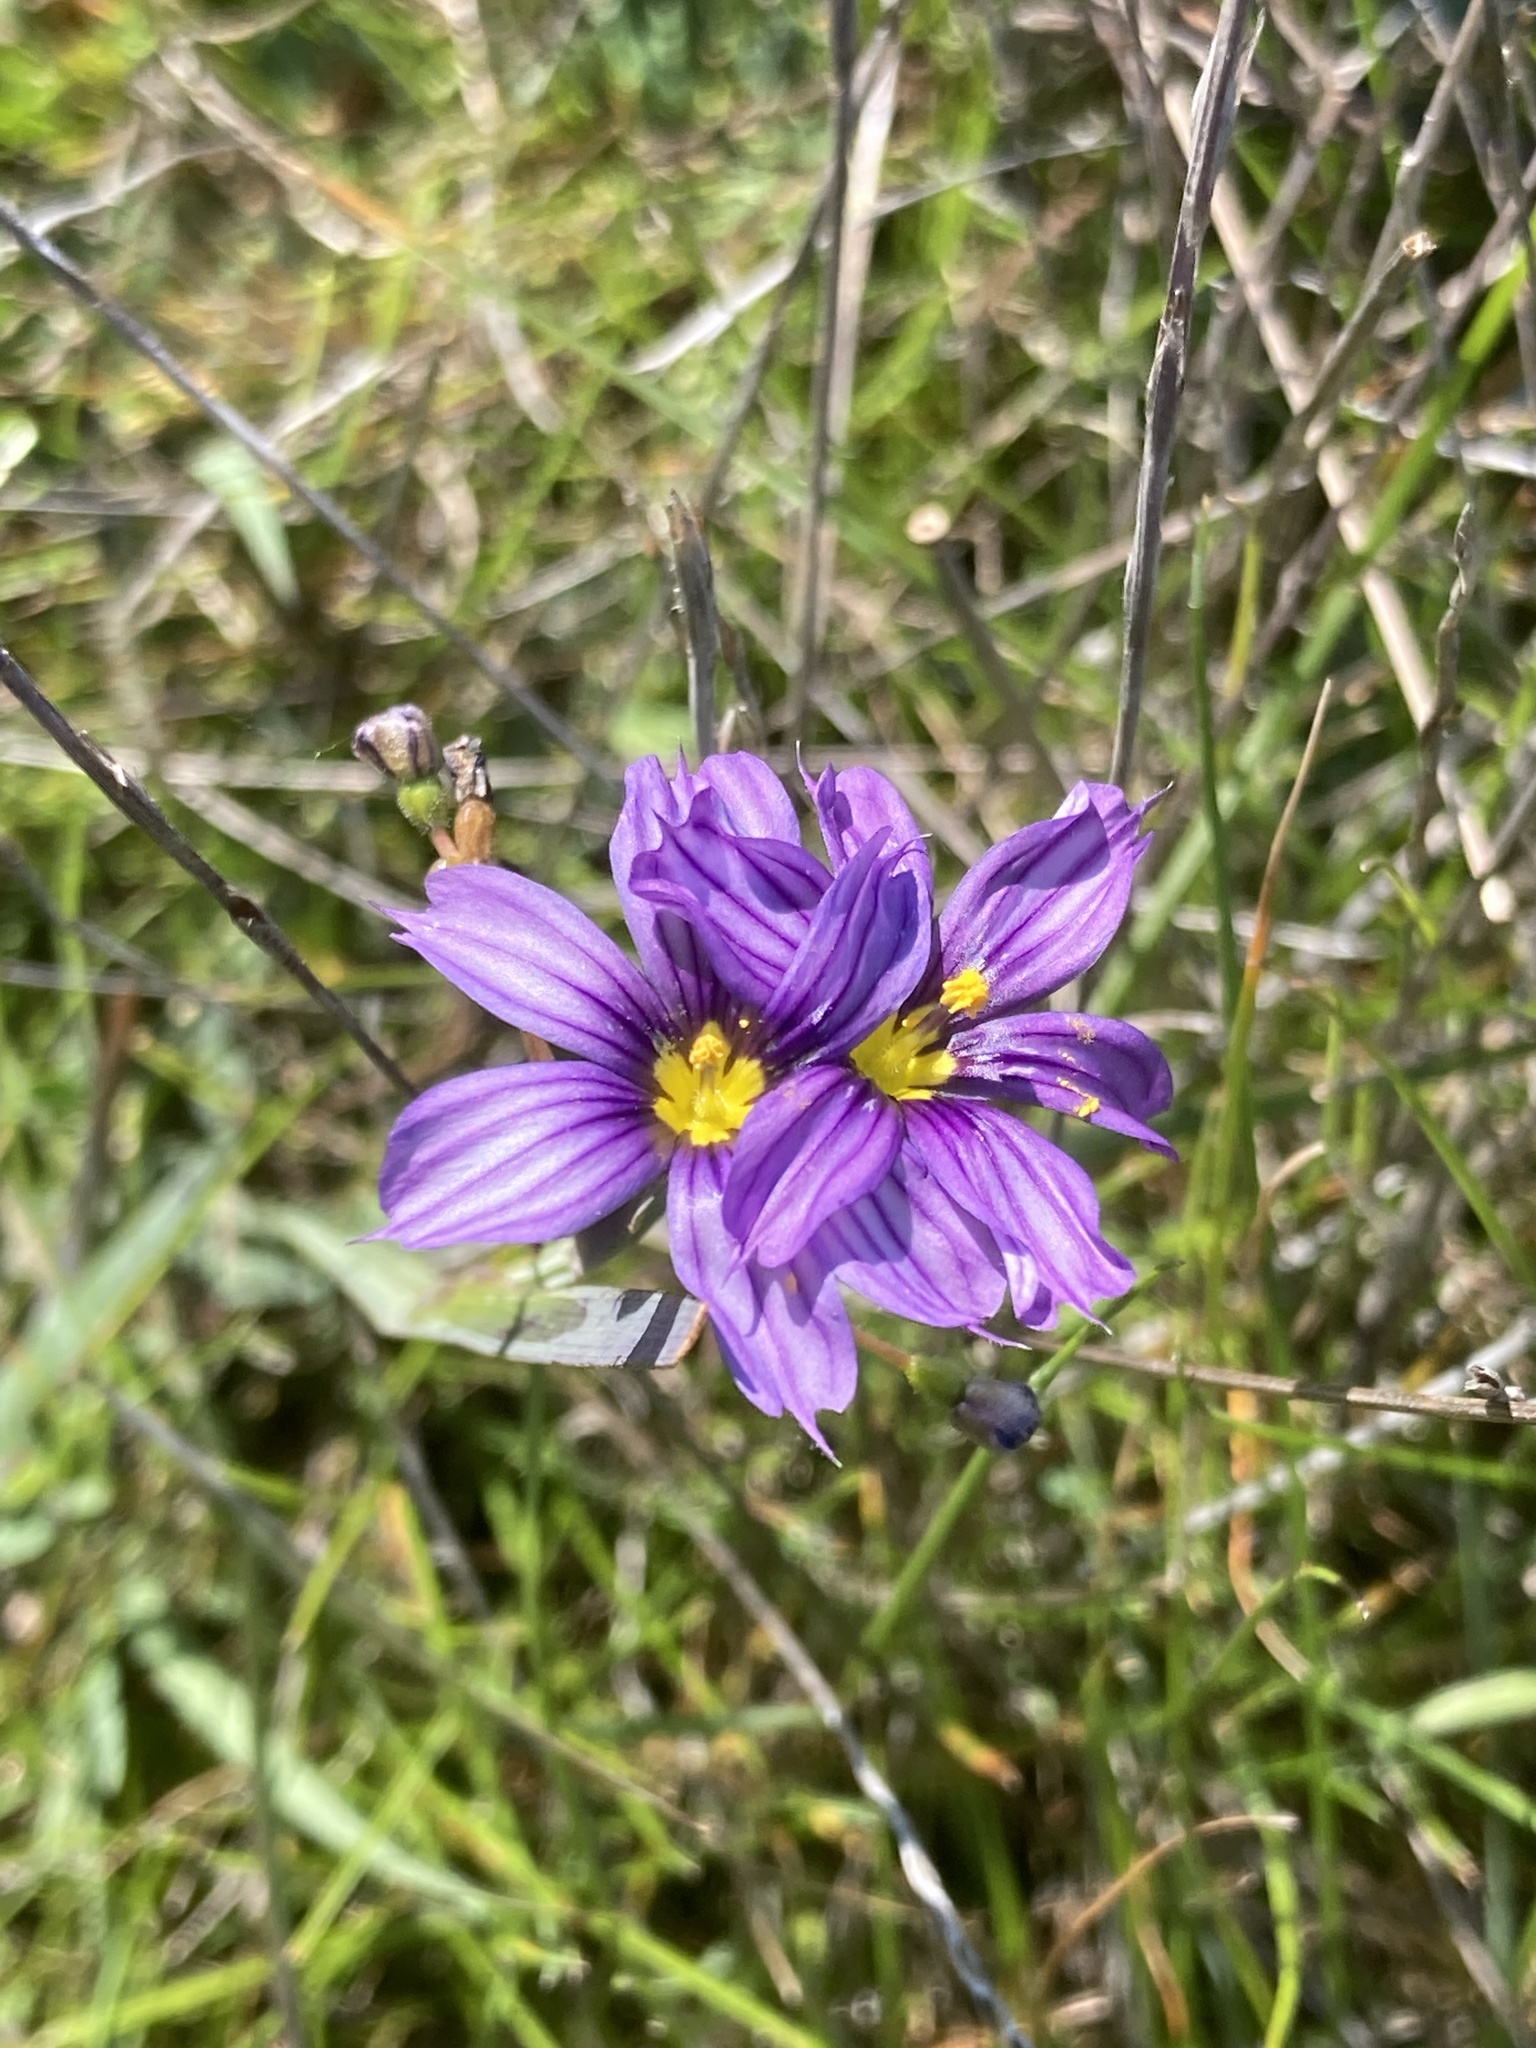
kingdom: Plantae
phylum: Tracheophyta
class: Liliopsida
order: Asparagales
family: Iridaceae
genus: Sisyrinchium
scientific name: Sisyrinchium bellum
